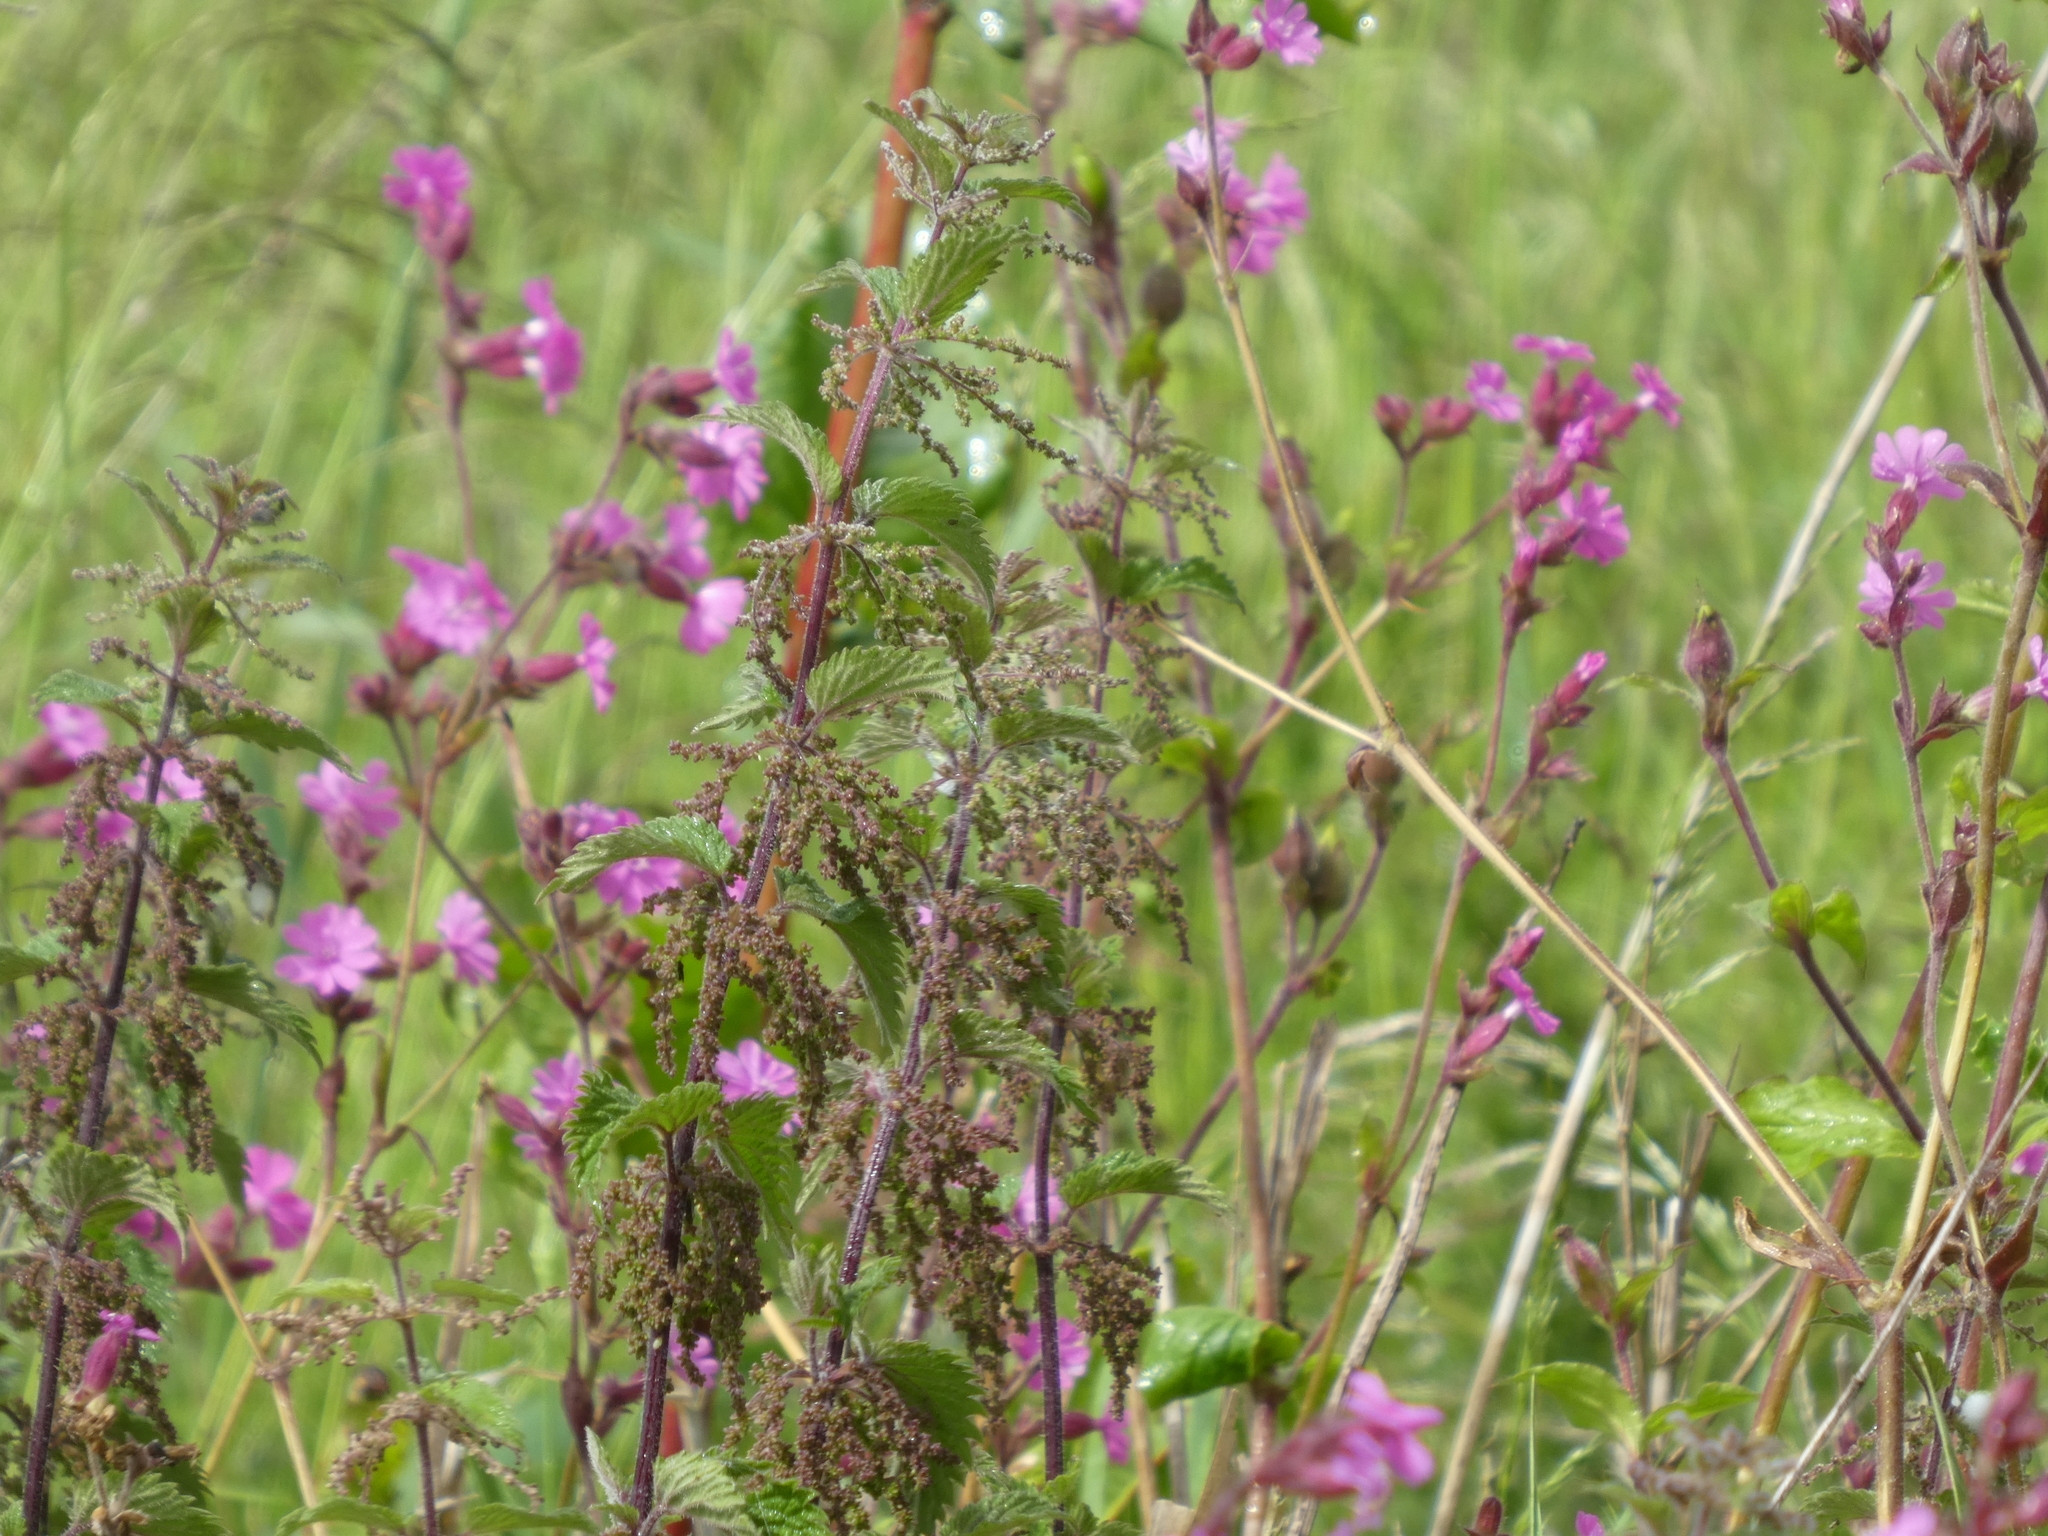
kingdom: Plantae
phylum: Tracheophyta
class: Magnoliopsida
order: Caryophyllales
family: Caryophyllaceae
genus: Silene
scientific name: Silene dioica
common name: Red campion
